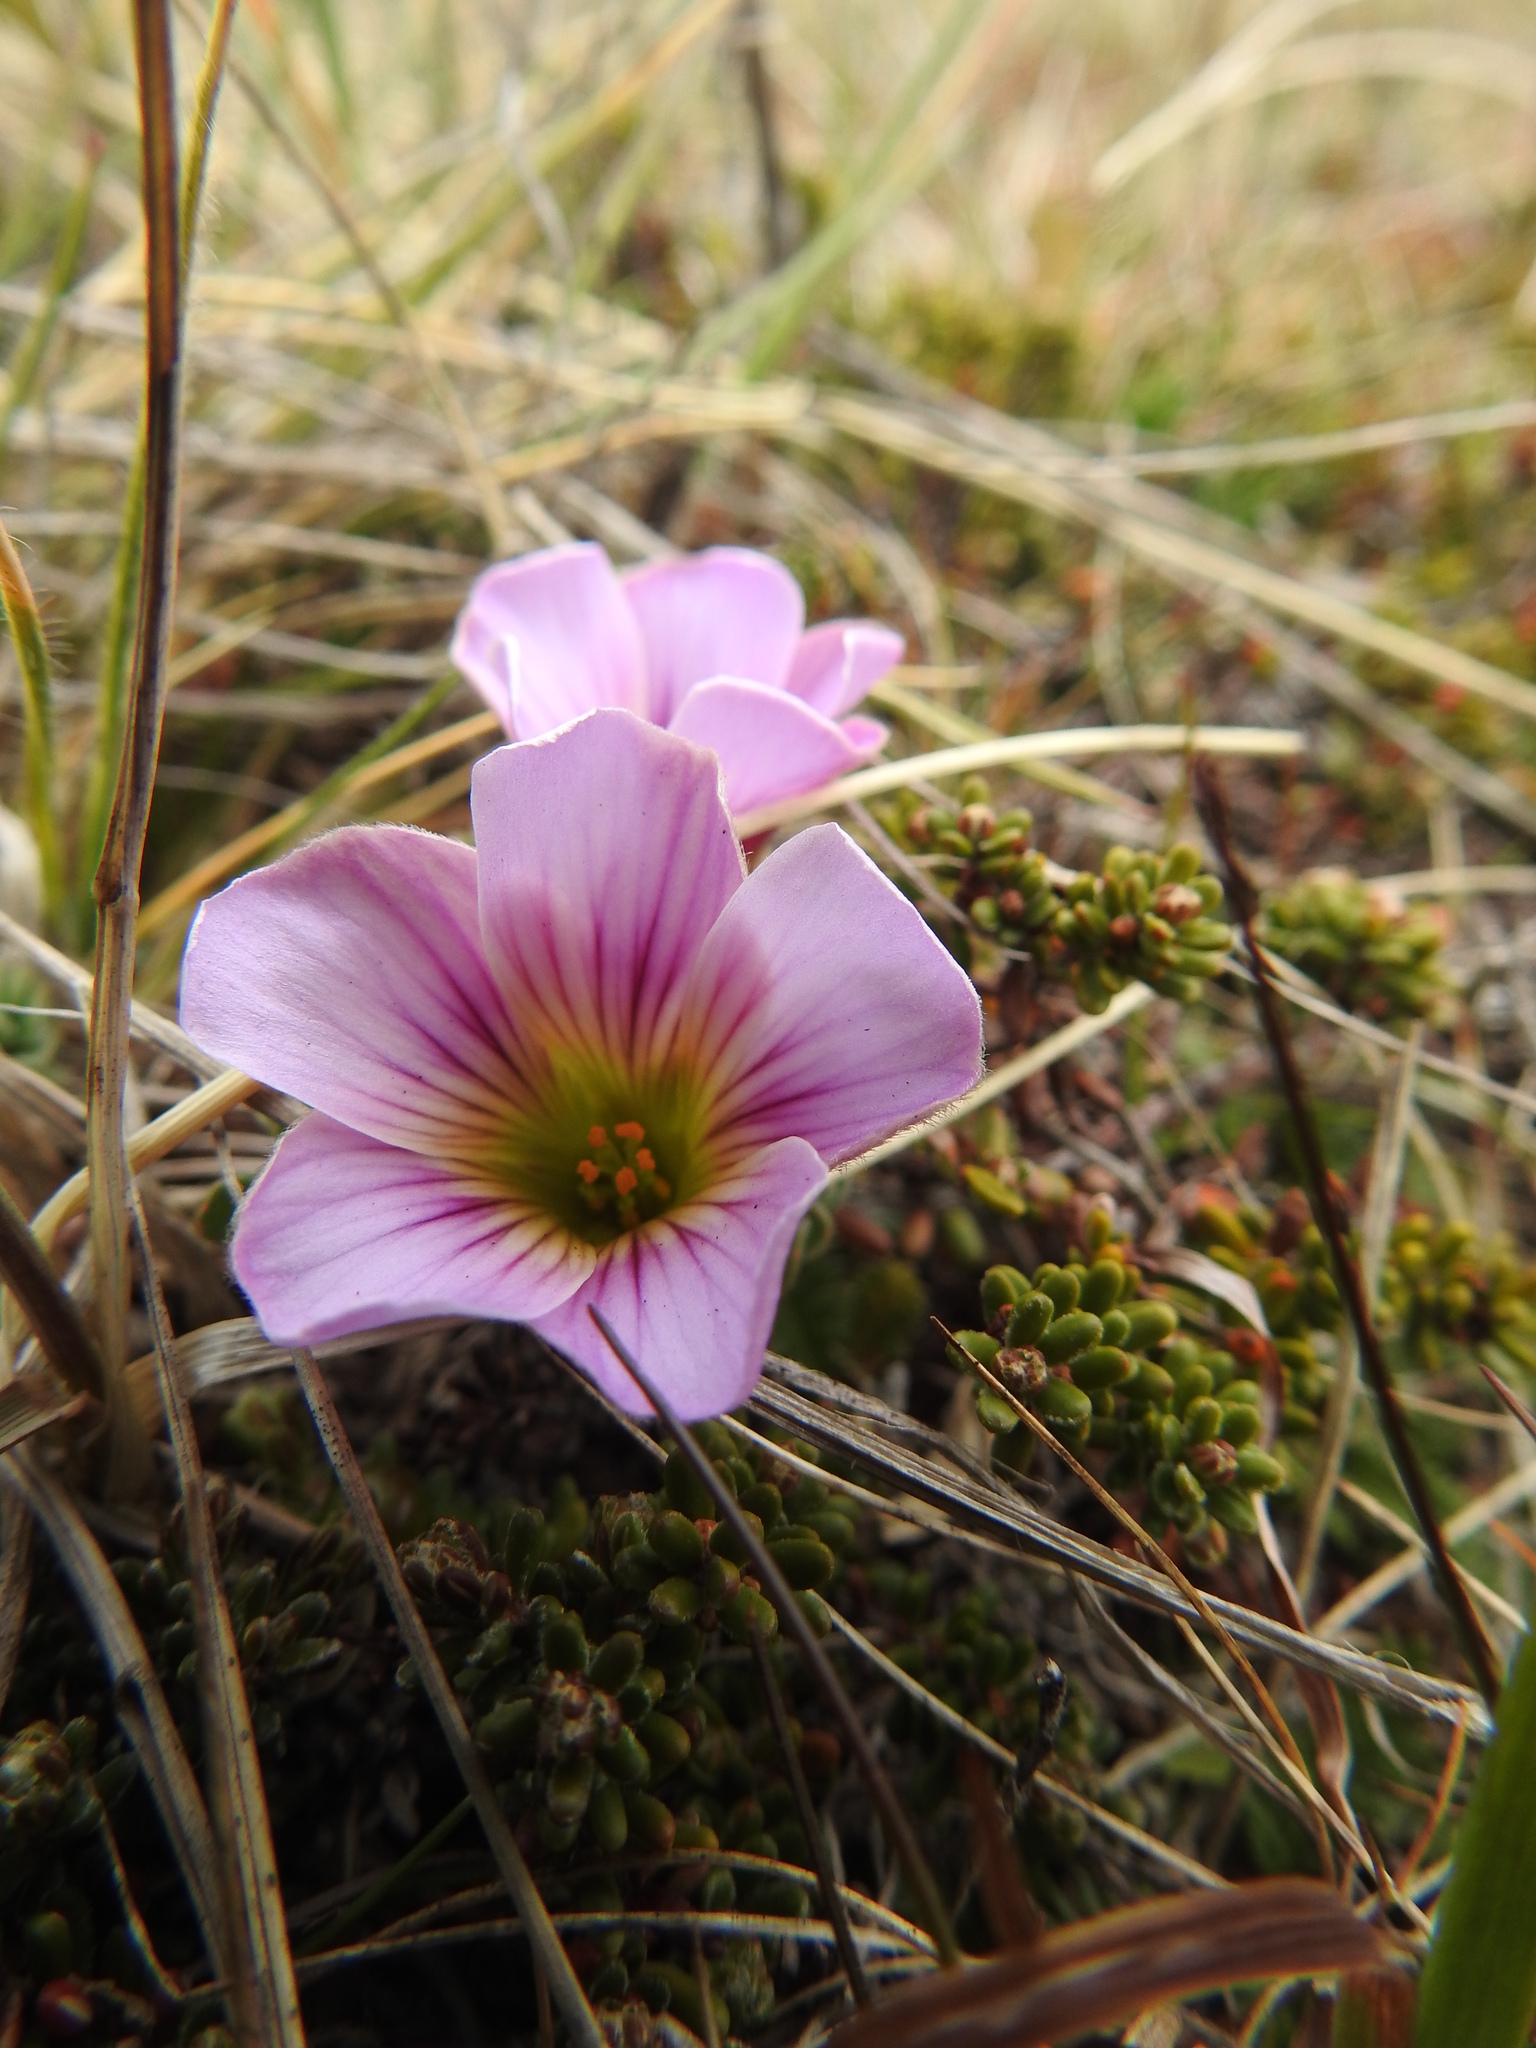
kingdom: Plantae
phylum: Tracheophyta
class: Magnoliopsida
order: Oxalidales
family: Oxalidaceae
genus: Oxalis
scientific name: Oxalis enneaphylla
